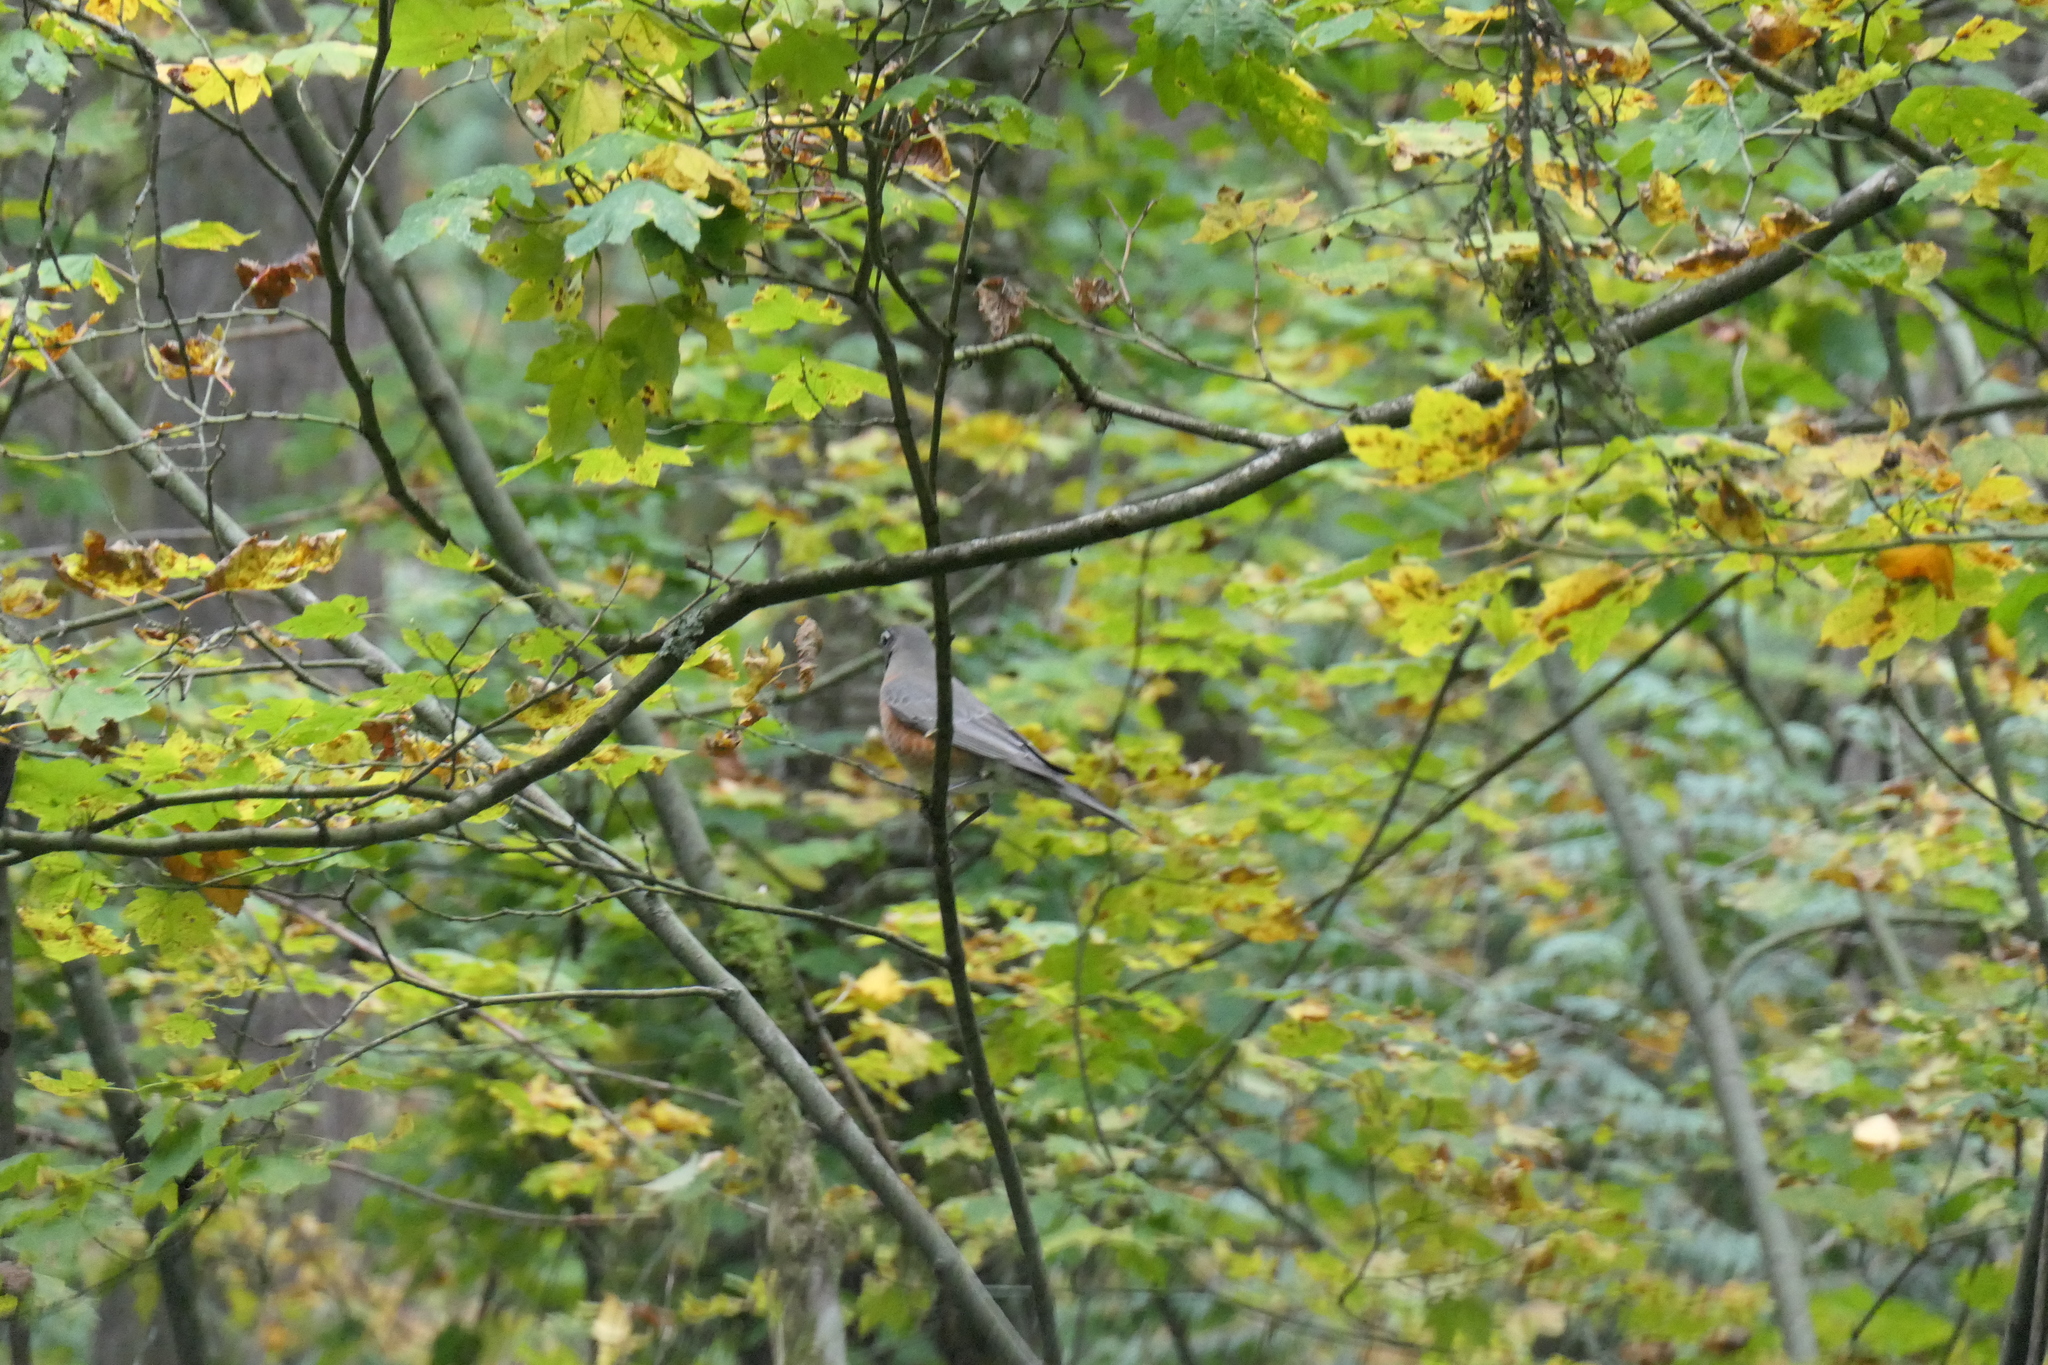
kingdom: Animalia
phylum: Chordata
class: Aves
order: Passeriformes
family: Turdidae
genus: Turdus
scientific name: Turdus migratorius
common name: American robin
